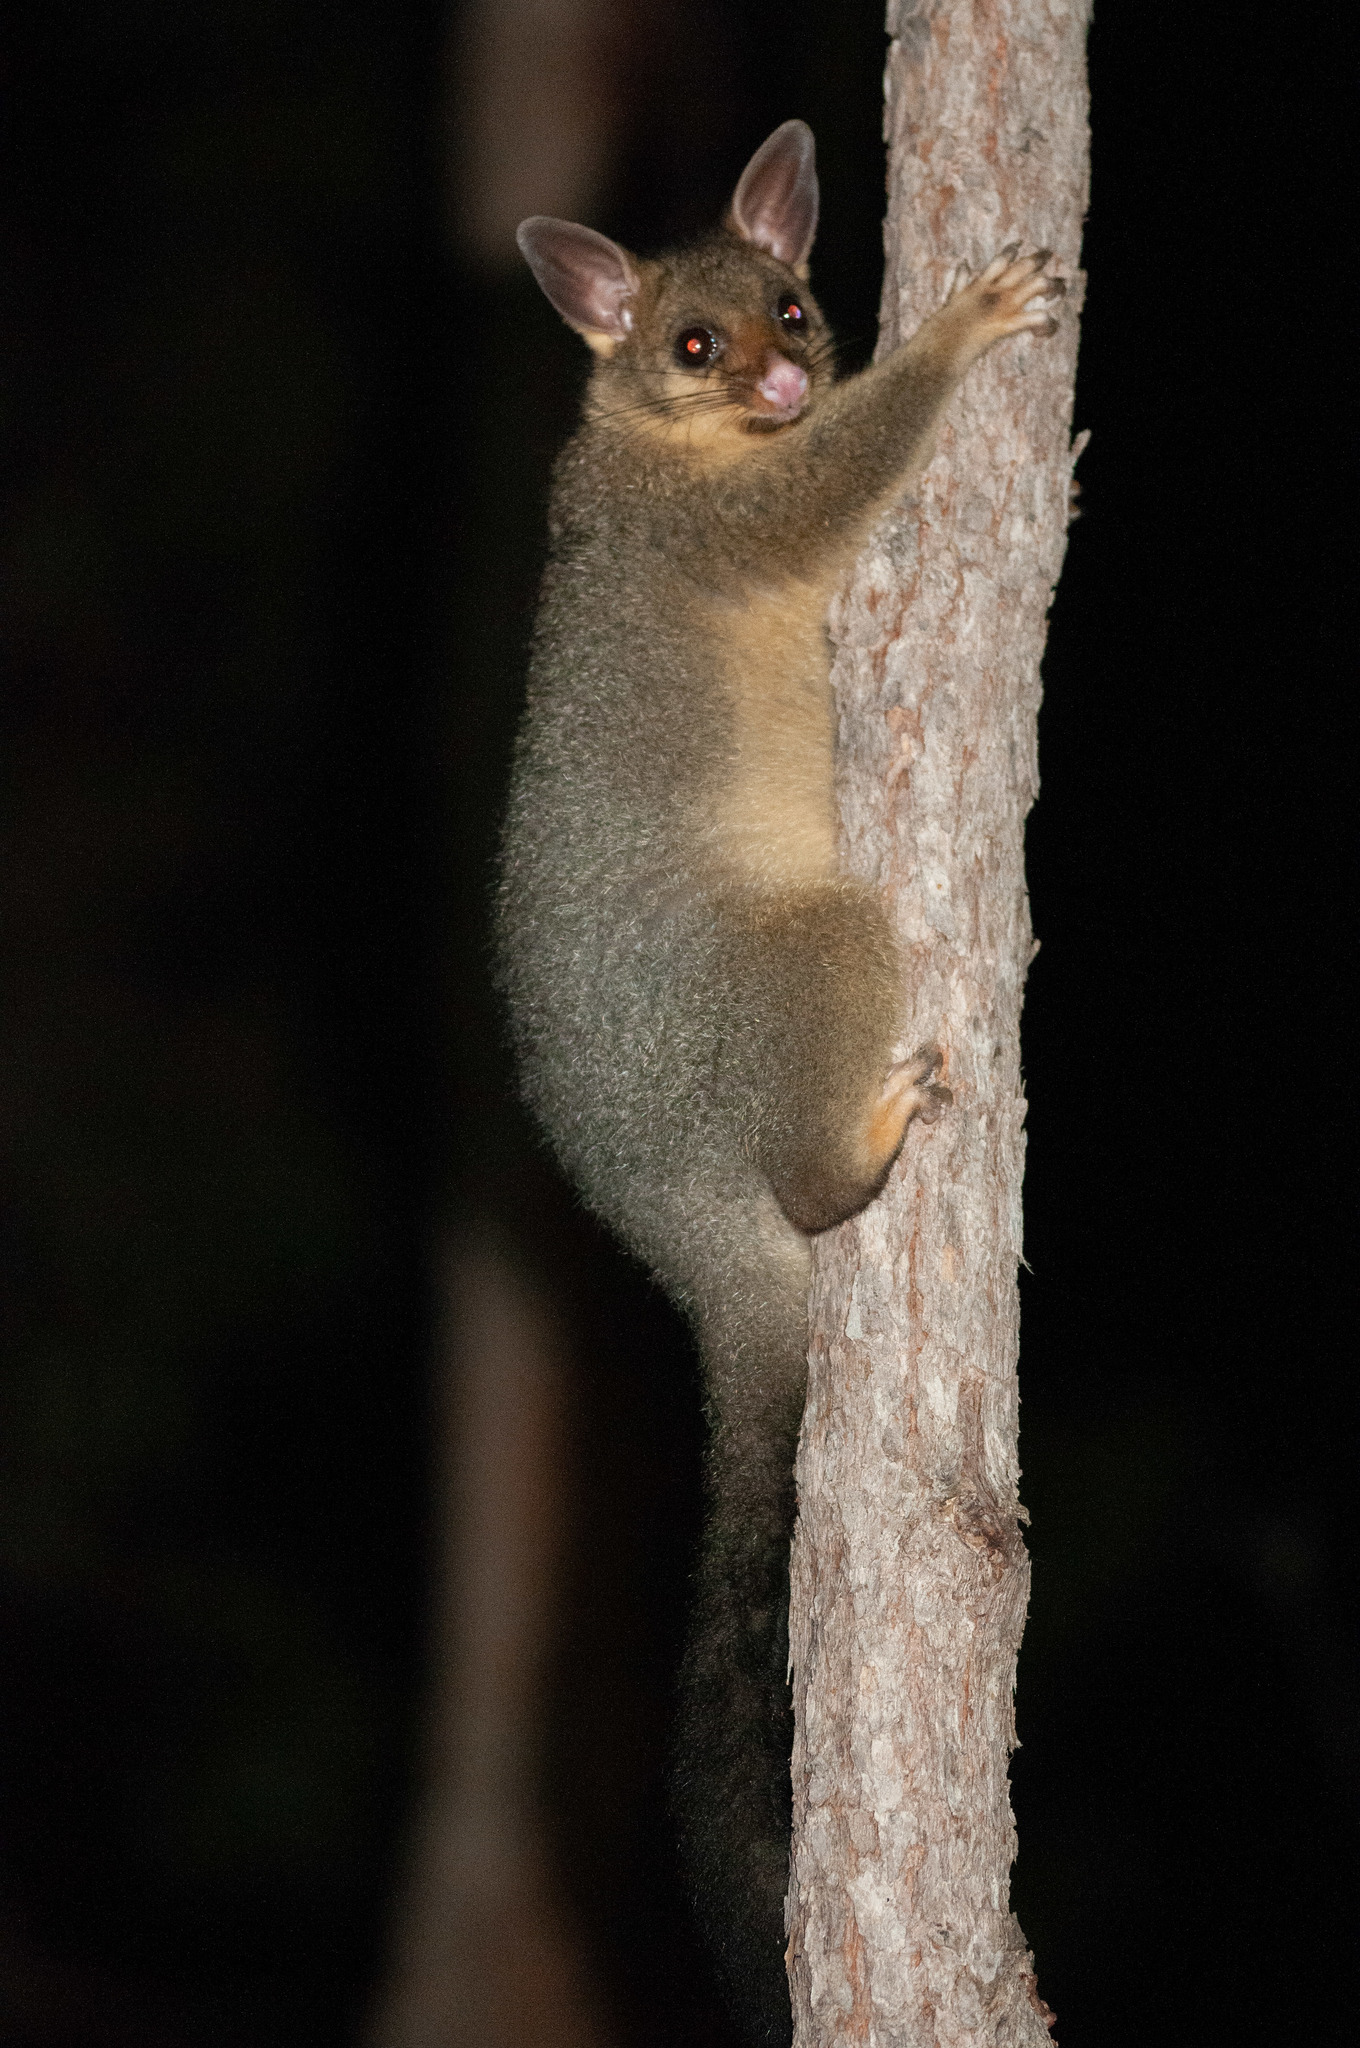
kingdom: Animalia
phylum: Chordata
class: Mammalia
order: Diprotodontia
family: Phalangeridae
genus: Trichosurus
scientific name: Trichosurus vulpecula
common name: Common brushtail
